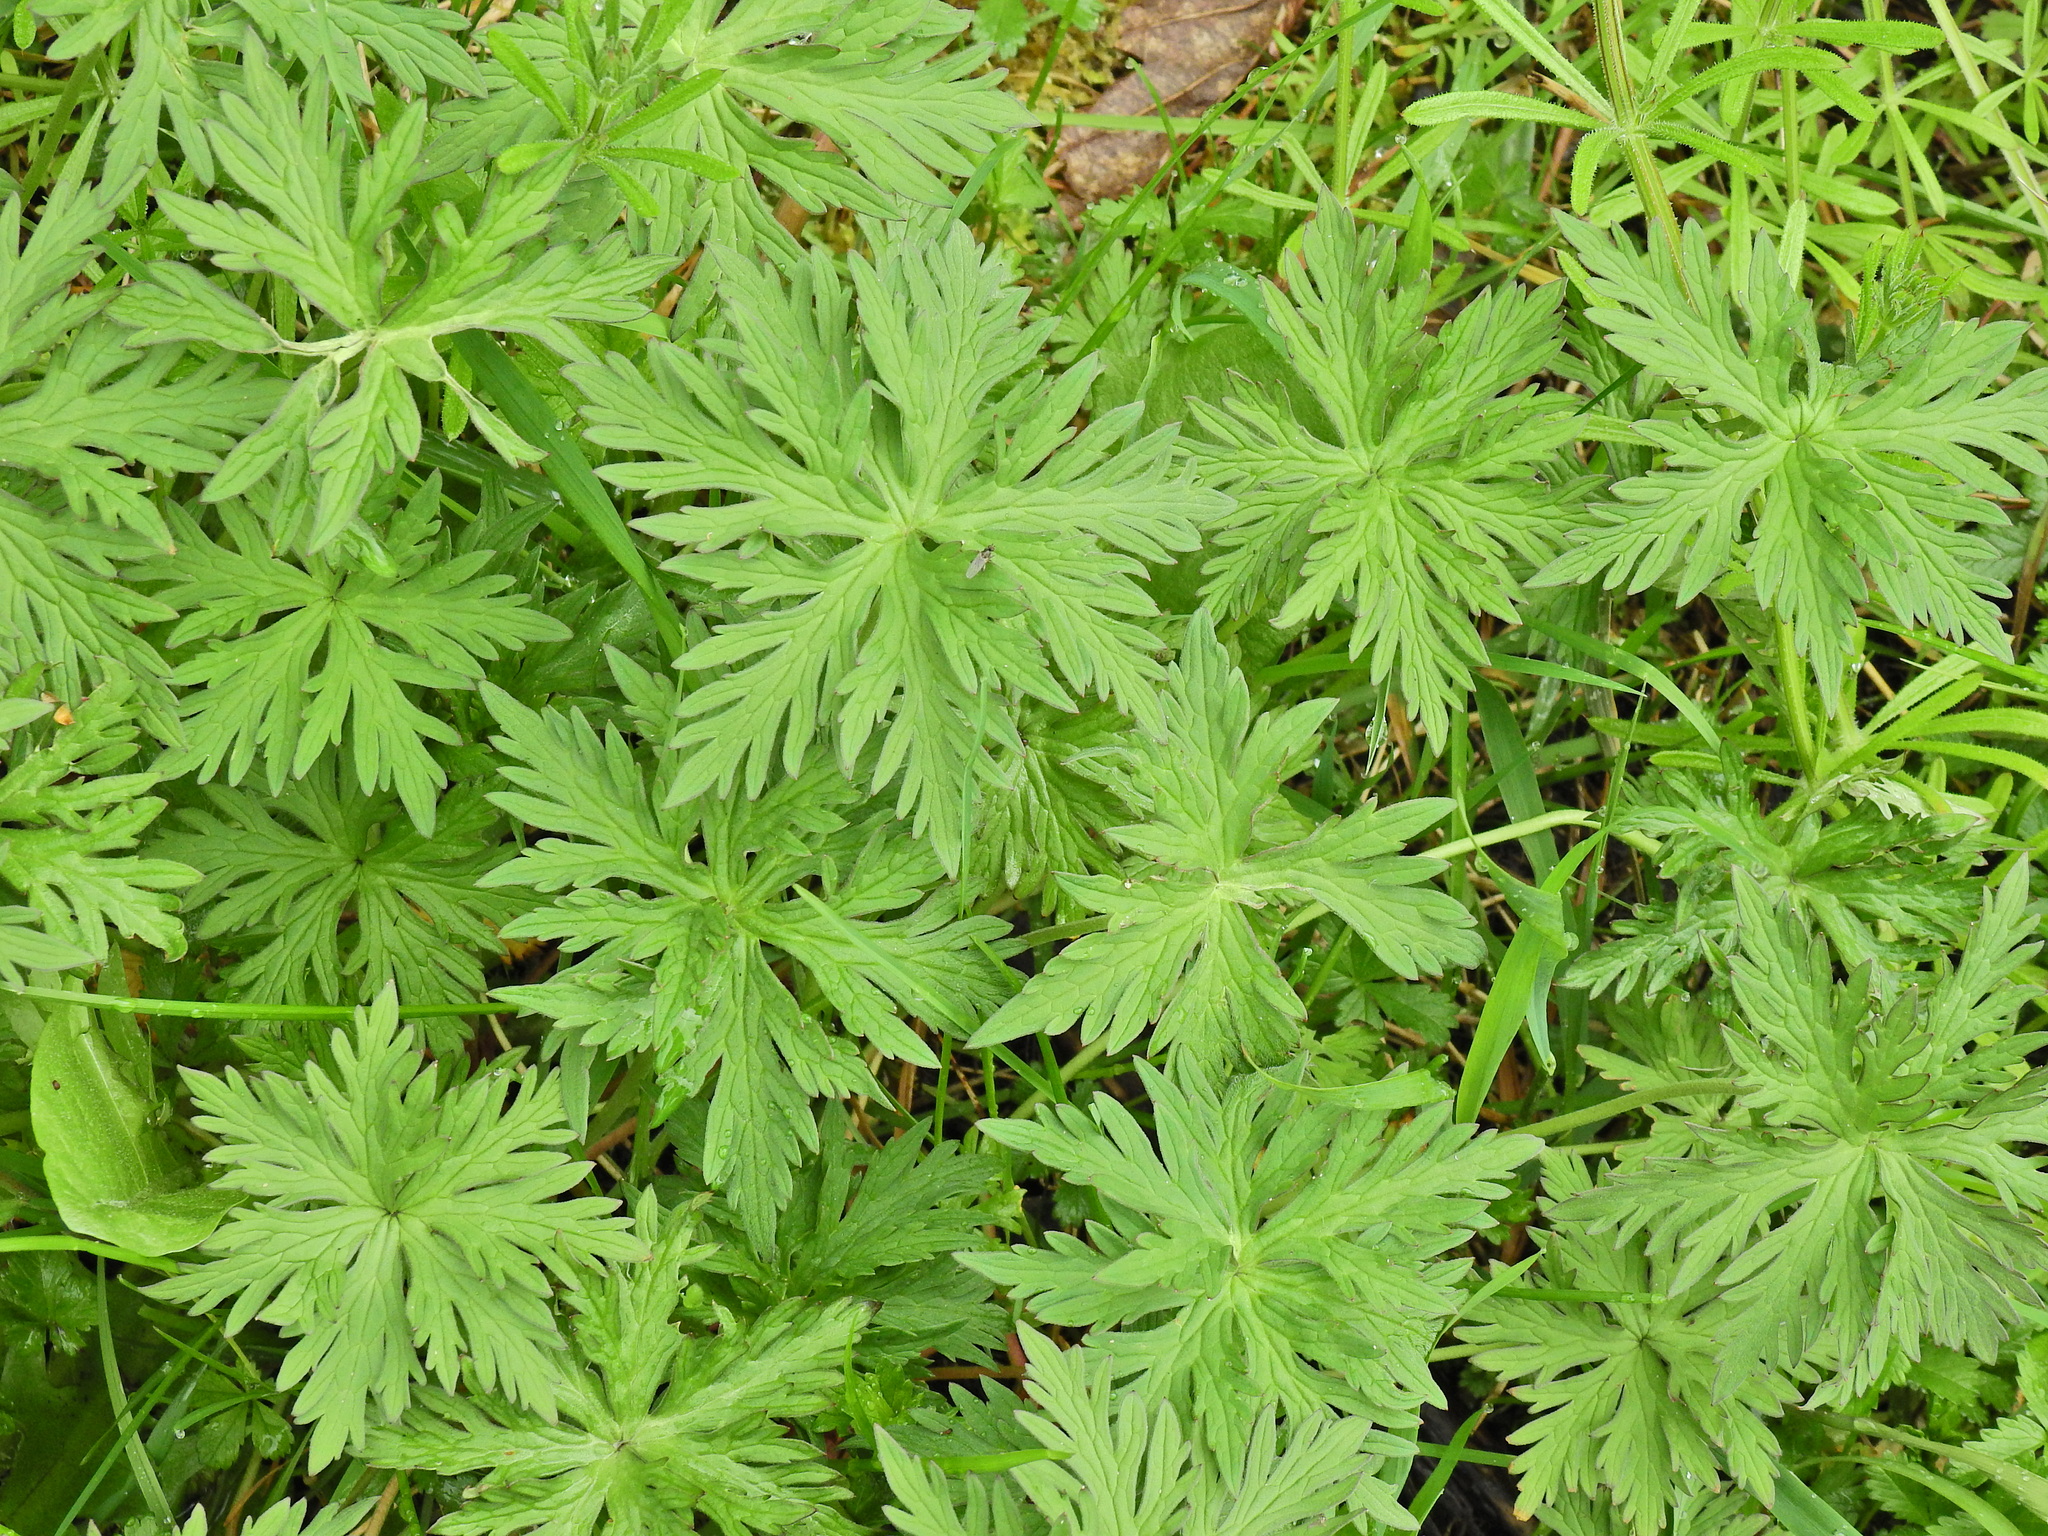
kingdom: Plantae
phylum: Tracheophyta
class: Magnoliopsida
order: Geraniales
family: Geraniaceae
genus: Geranium
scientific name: Geranium pratense
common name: Meadow crane's-bill
